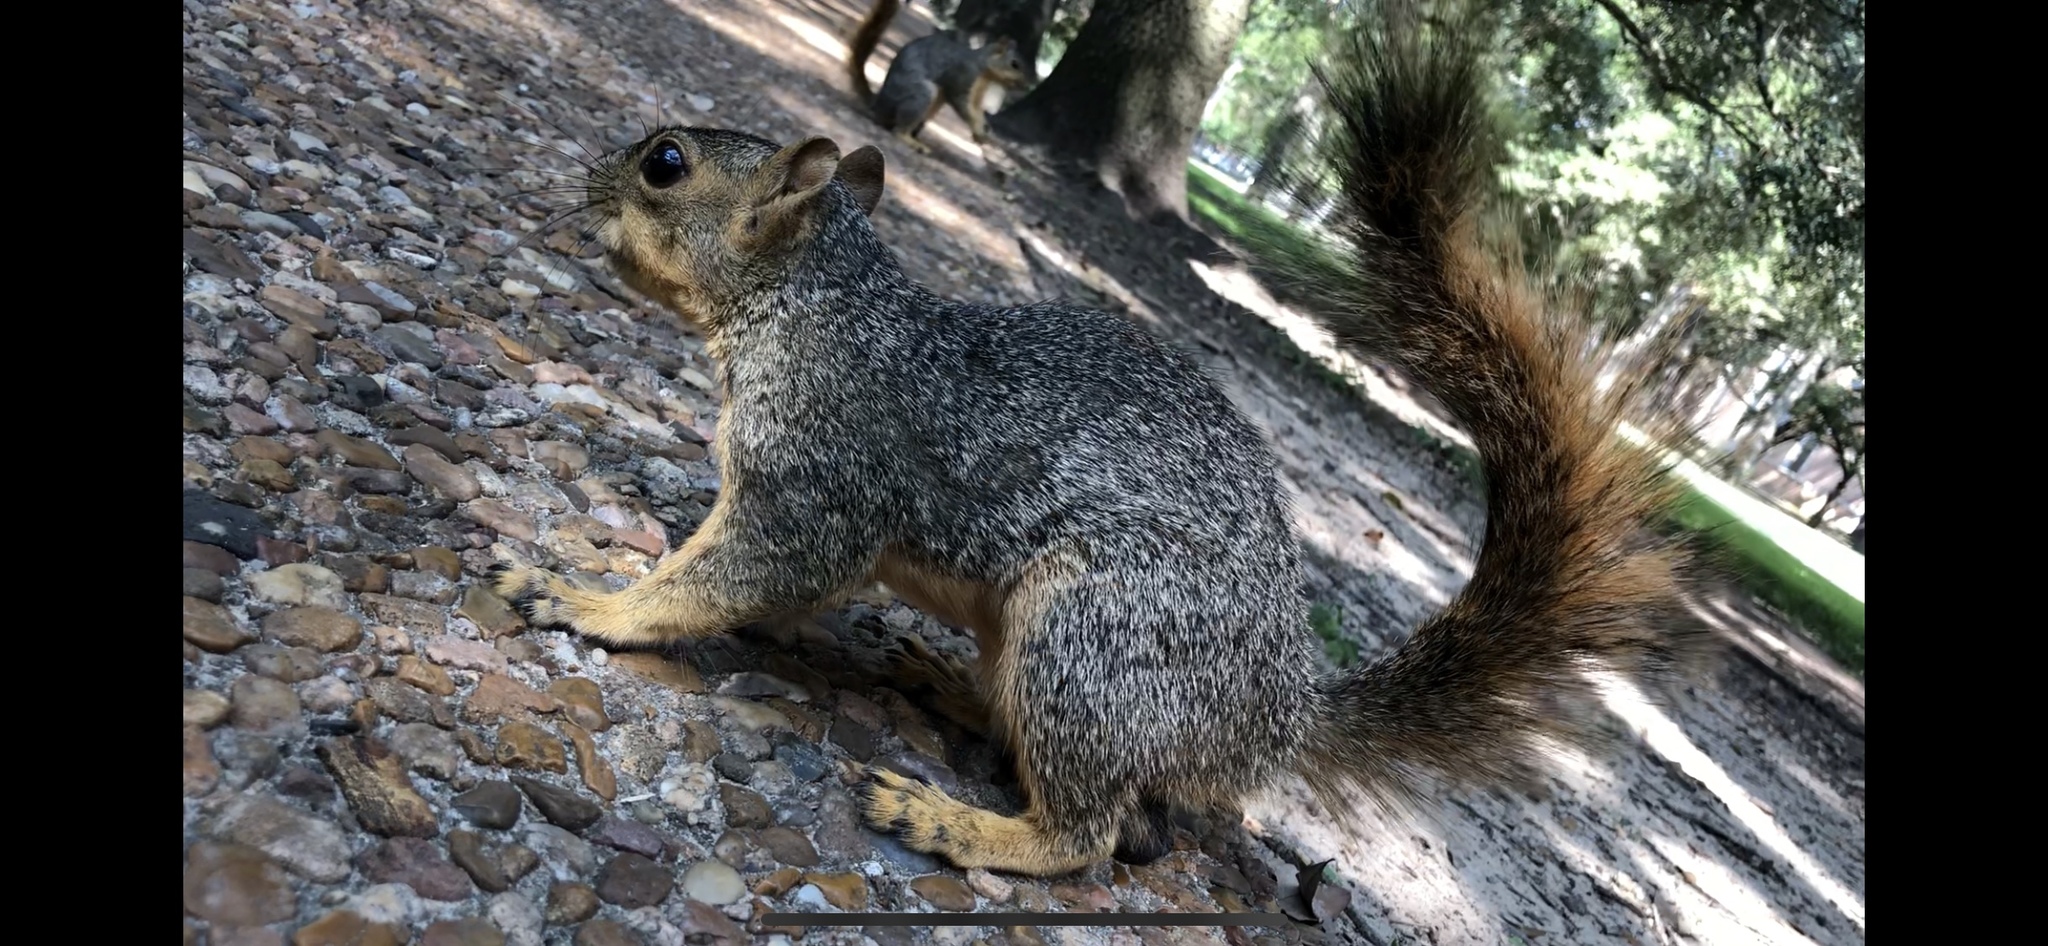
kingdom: Animalia
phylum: Chordata
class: Mammalia
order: Rodentia
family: Sciuridae
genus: Sciurus
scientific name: Sciurus niger
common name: Fox squirrel
